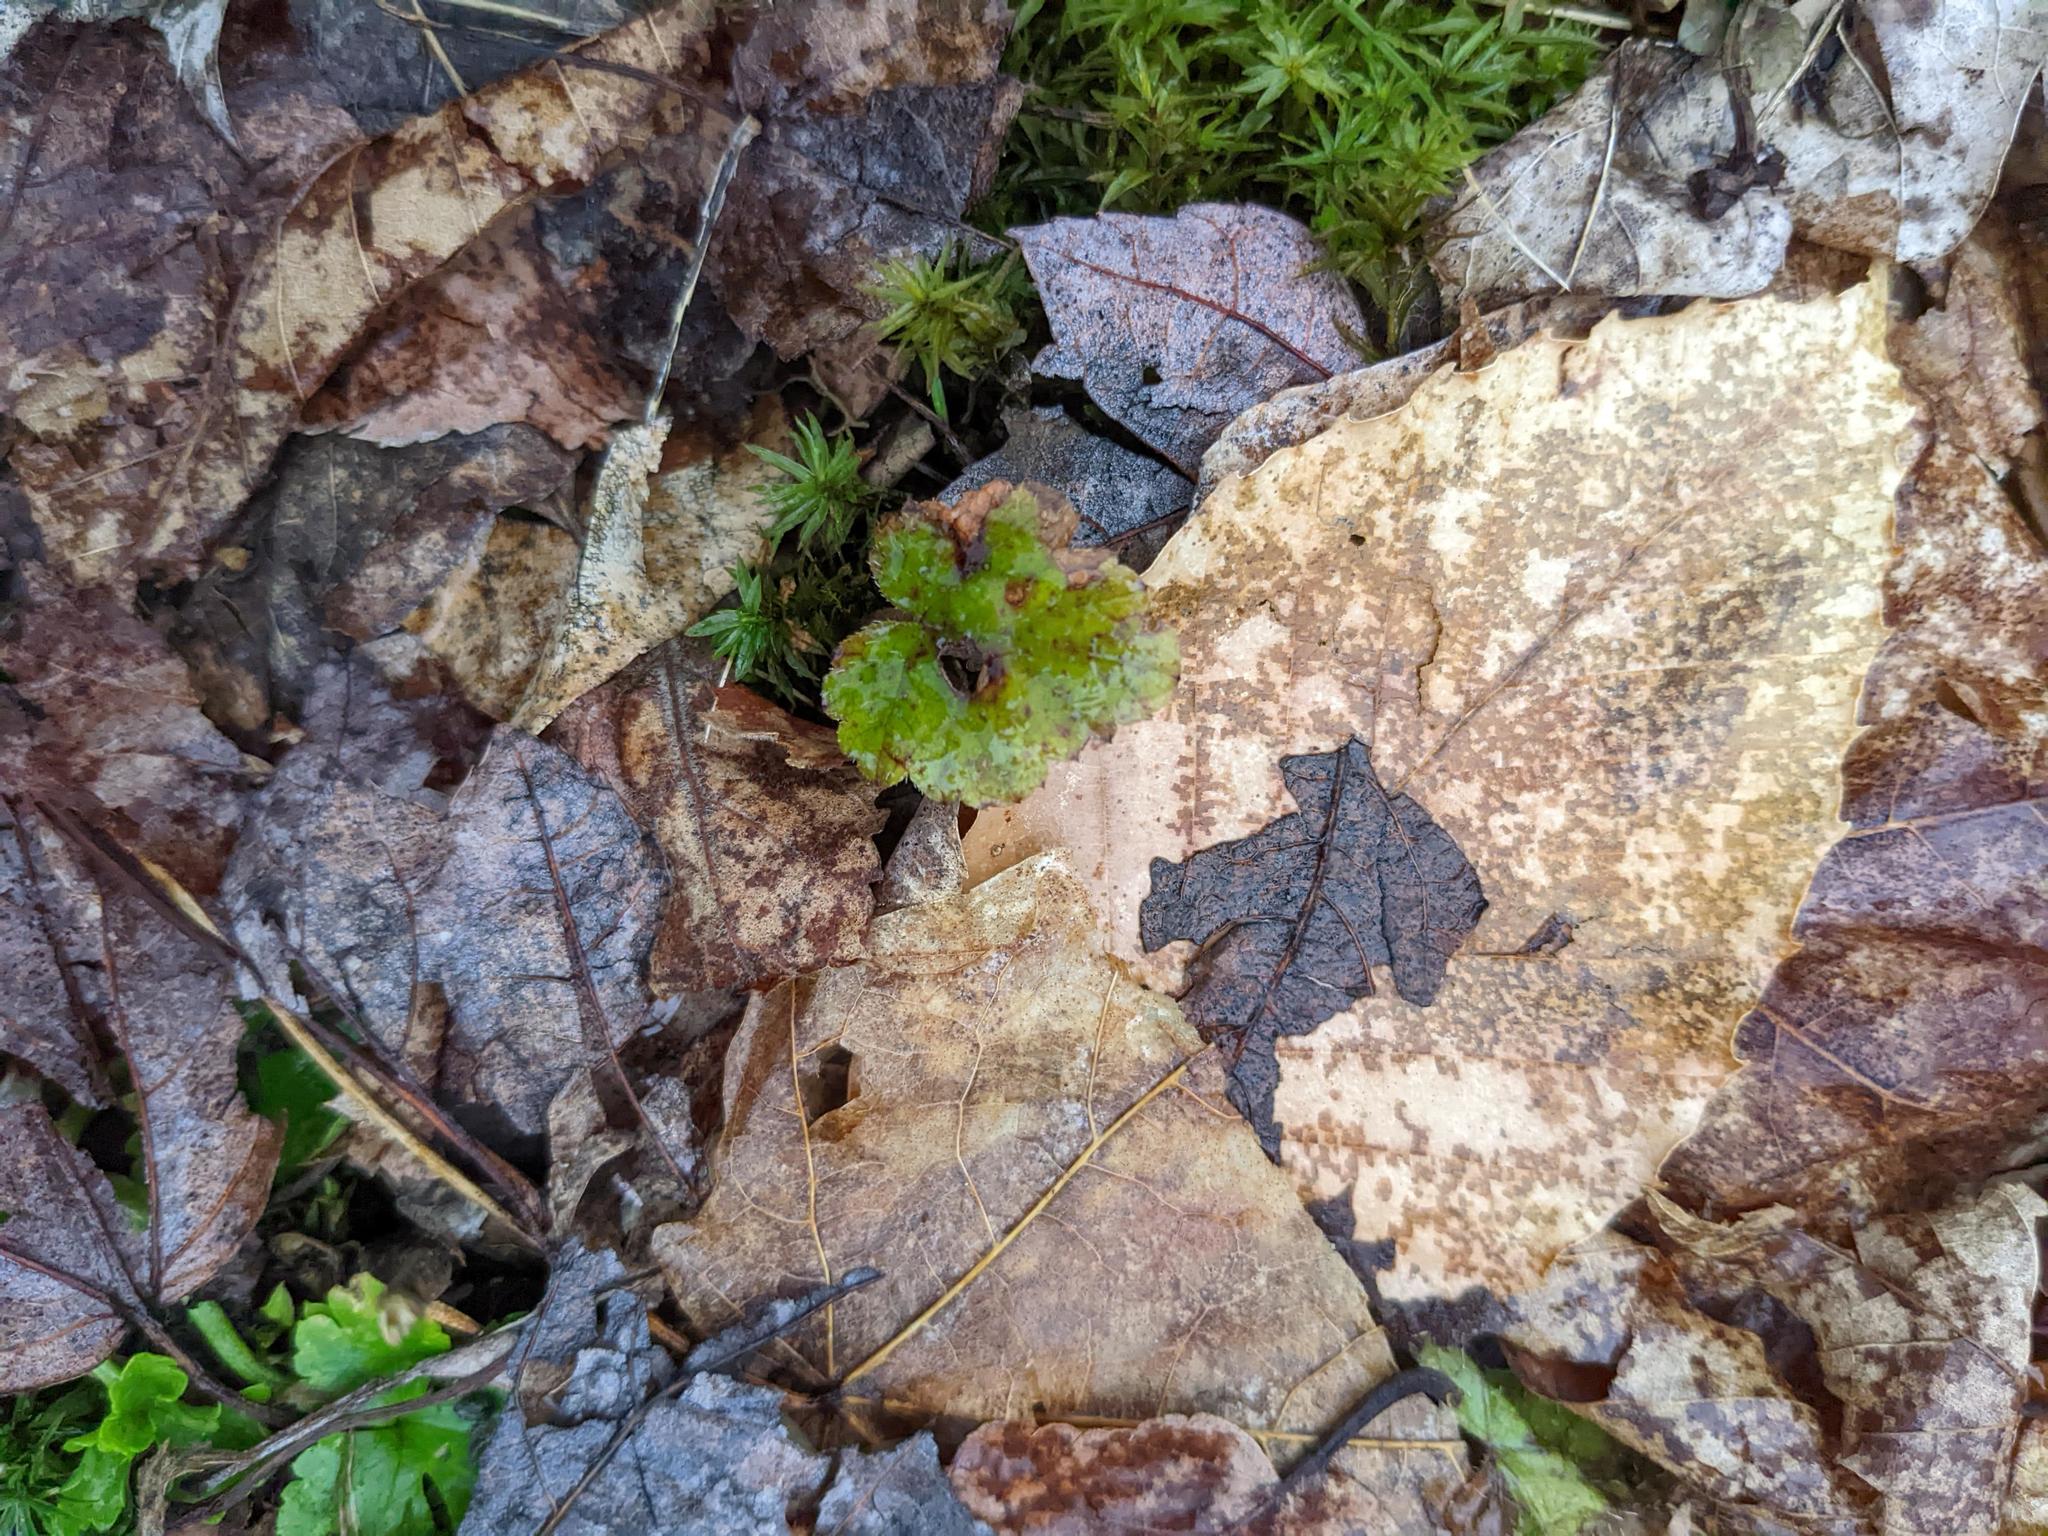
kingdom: Plantae
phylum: Tracheophyta
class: Magnoliopsida
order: Fagales
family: Fagaceae
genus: Fagus
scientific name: Fagus grandifolia
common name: American beech
